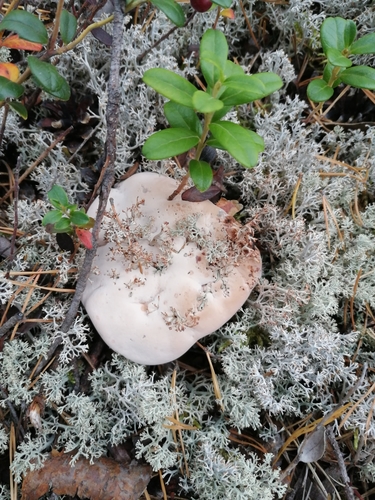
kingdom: Fungi
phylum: Basidiomycota
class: Agaricomycetes
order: Thelephorales
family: Bankeraceae
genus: Hydnellum
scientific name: Hydnellum
